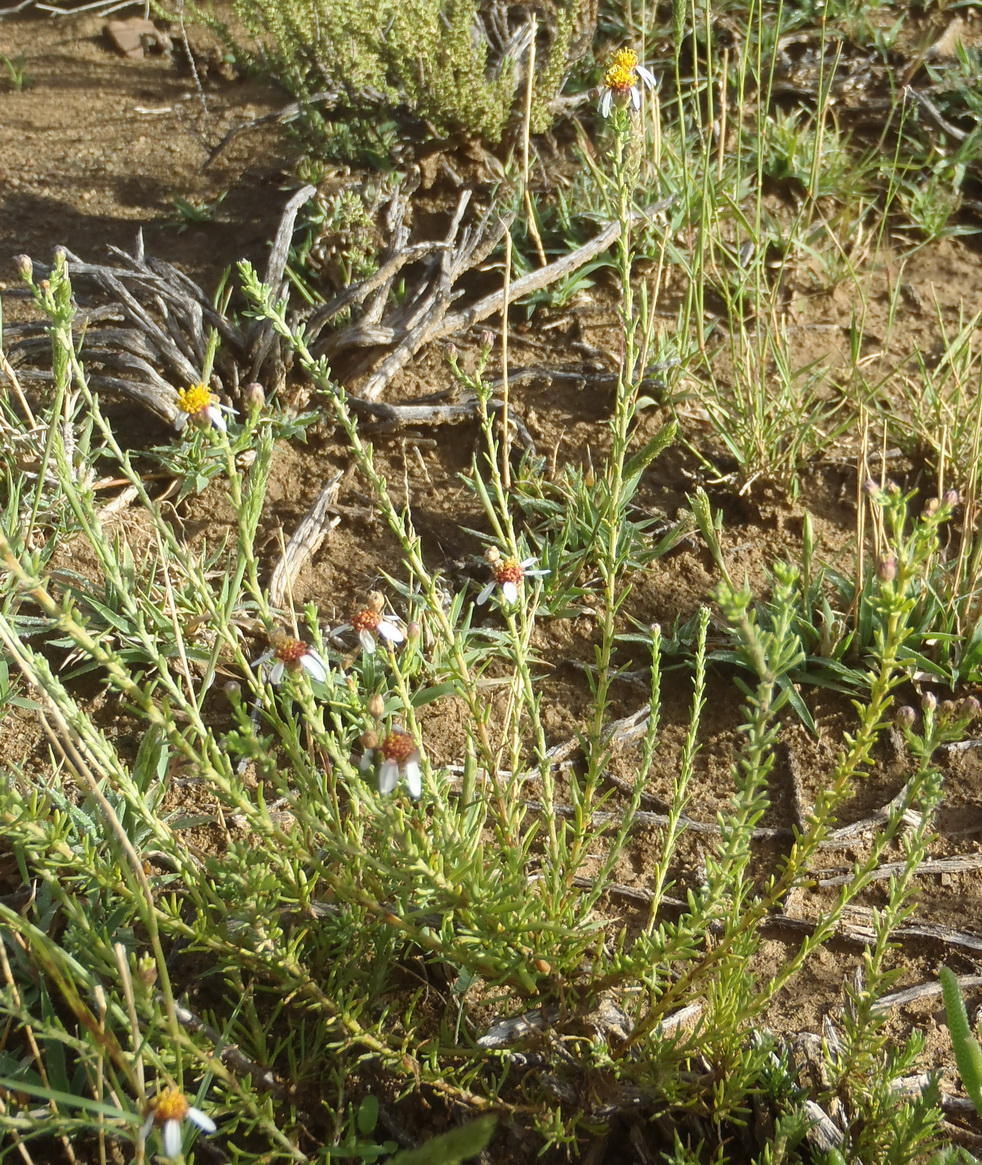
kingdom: Plantae
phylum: Tracheophyta
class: Magnoliopsida
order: Asterales
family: Asteraceae
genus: Phymaspermum
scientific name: Phymaspermum parvifolium
